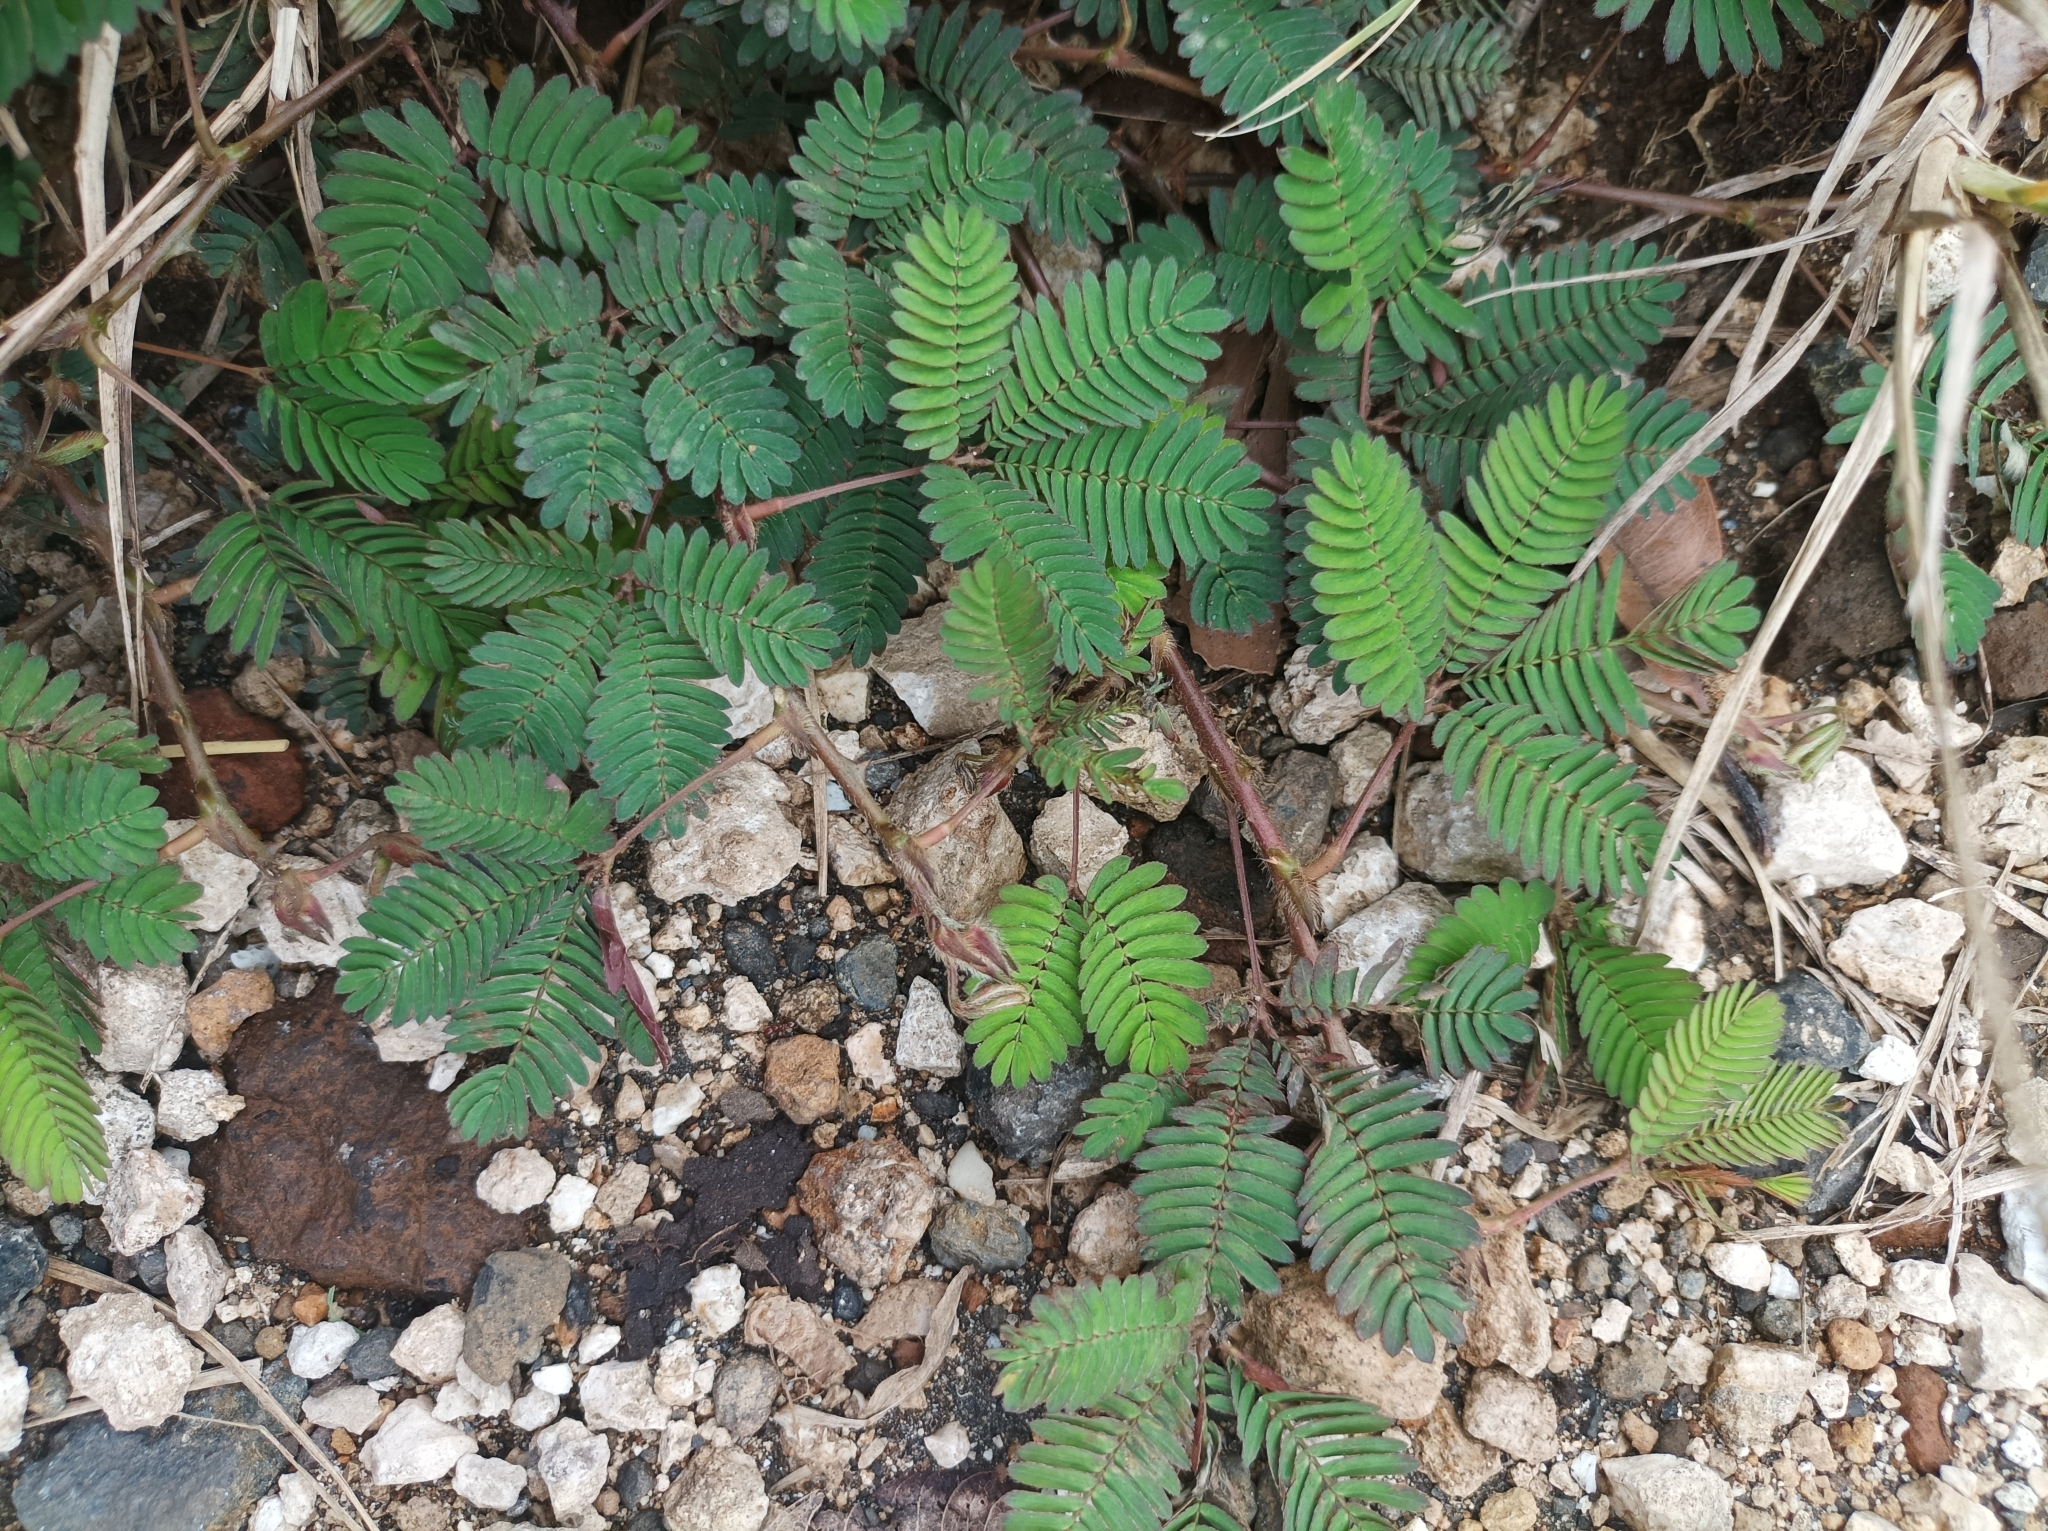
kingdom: Plantae
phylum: Tracheophyta
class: Magnoliopsida
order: Fabales
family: Fabaceae
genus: Mimosa
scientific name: Mimosa pudica
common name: Sensitive plant
